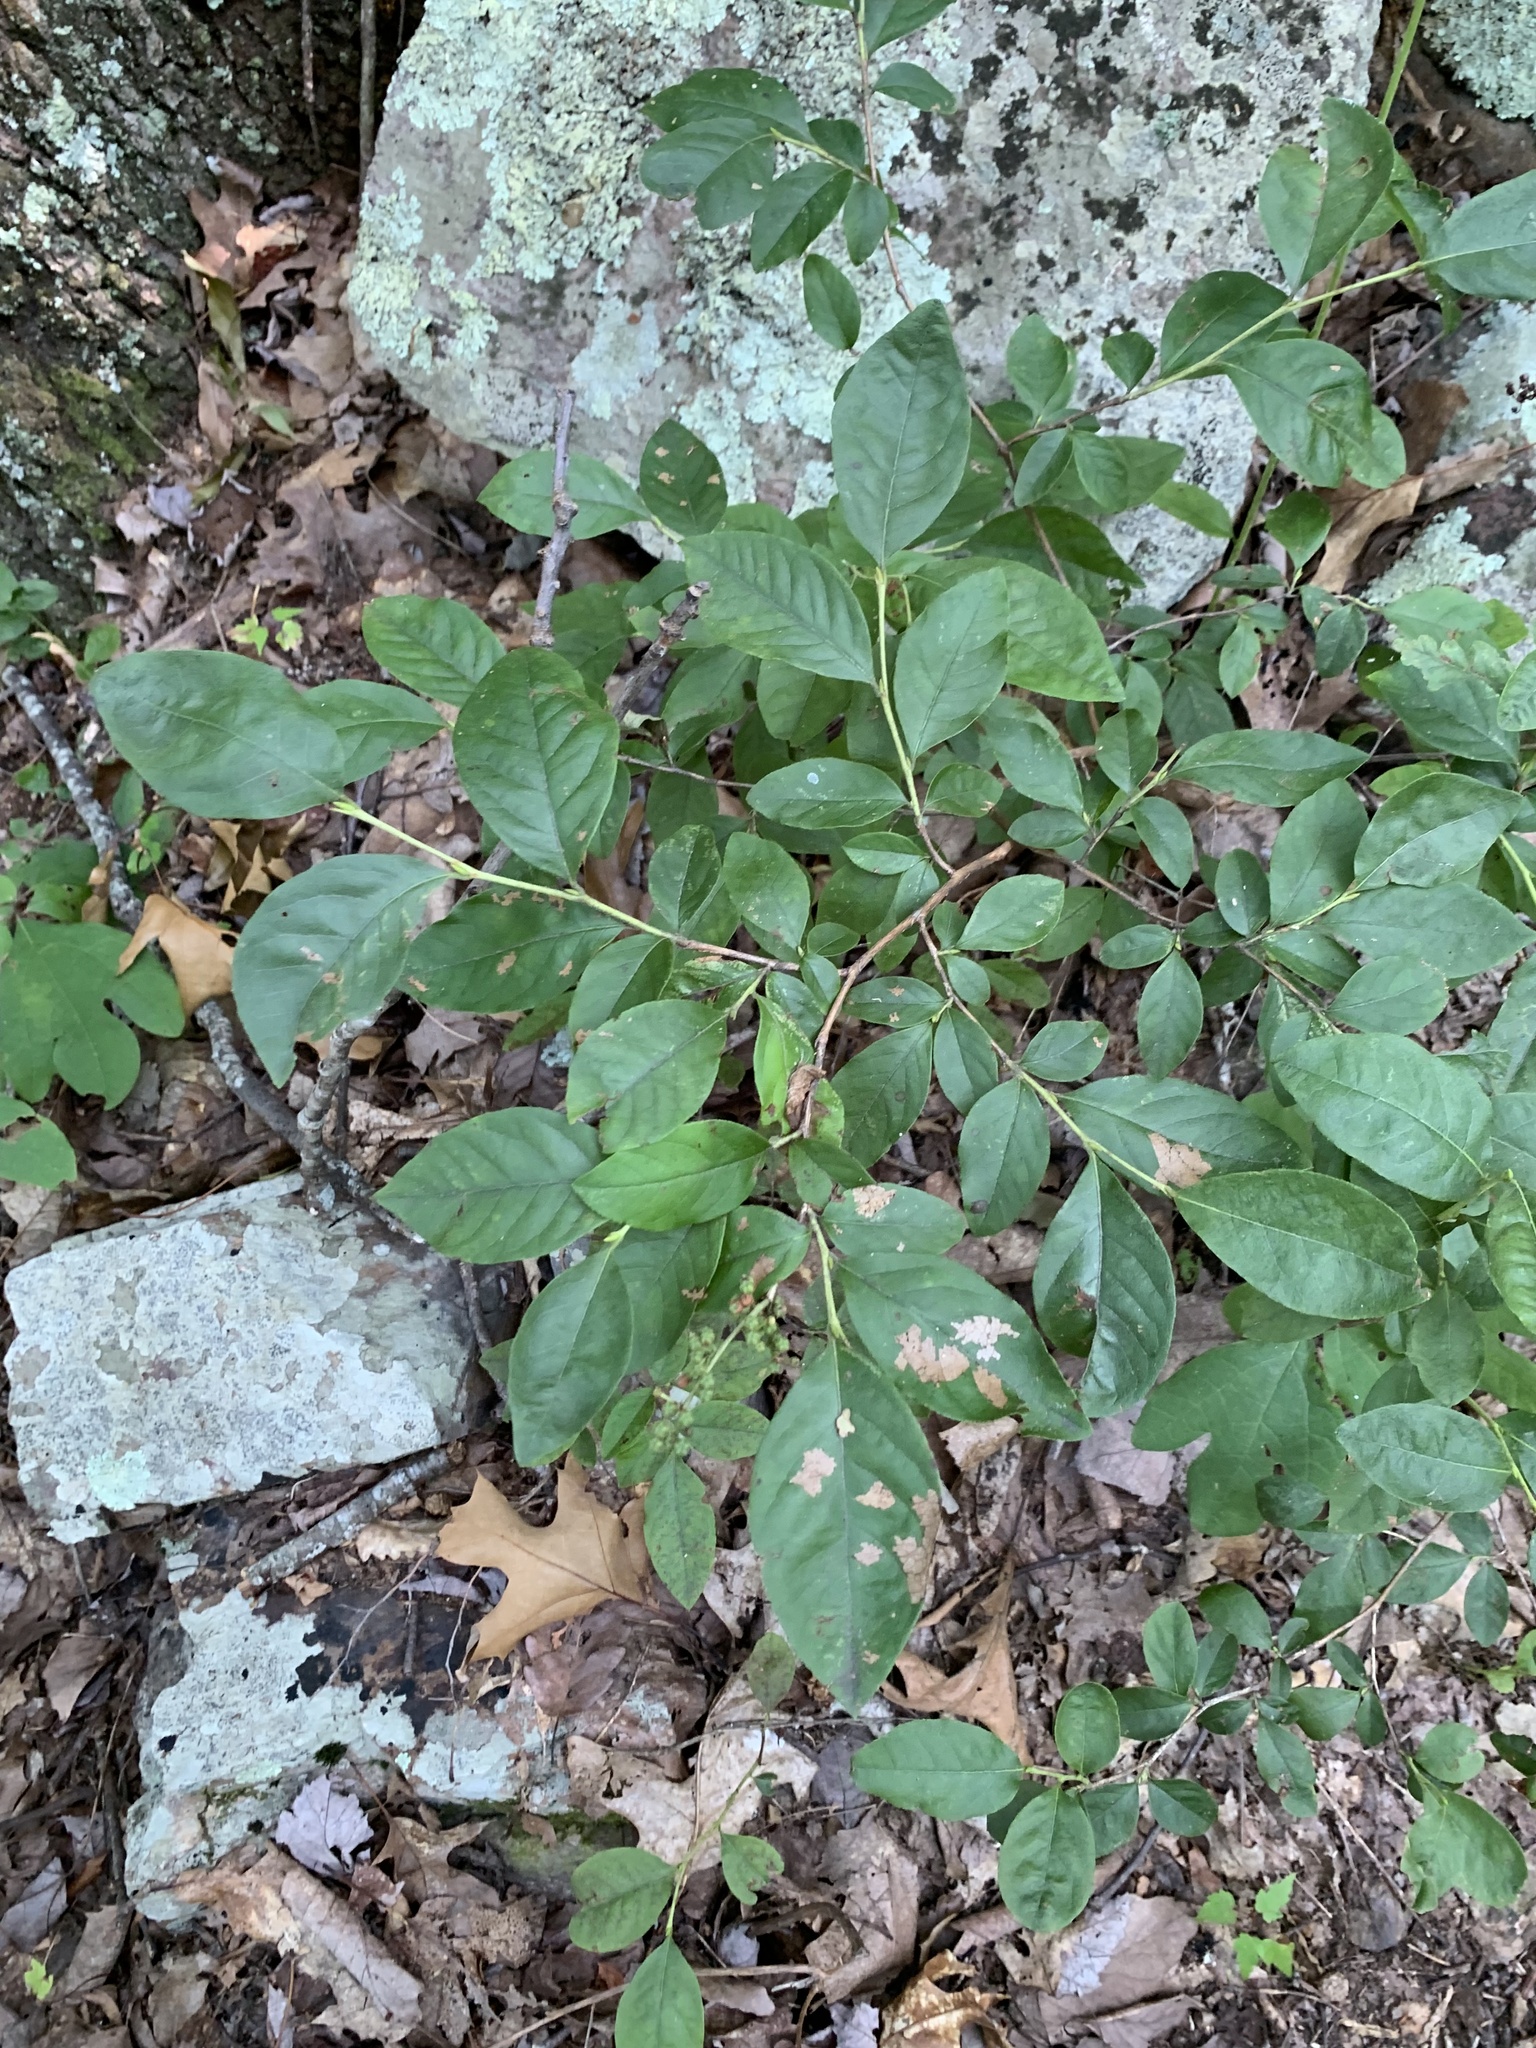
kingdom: Plantae
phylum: Tracheophyta
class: Magnoliopsida
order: Ericales
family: Ericaceae
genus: Lyonia
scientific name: Lyonia ligustrina
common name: Maleberry
